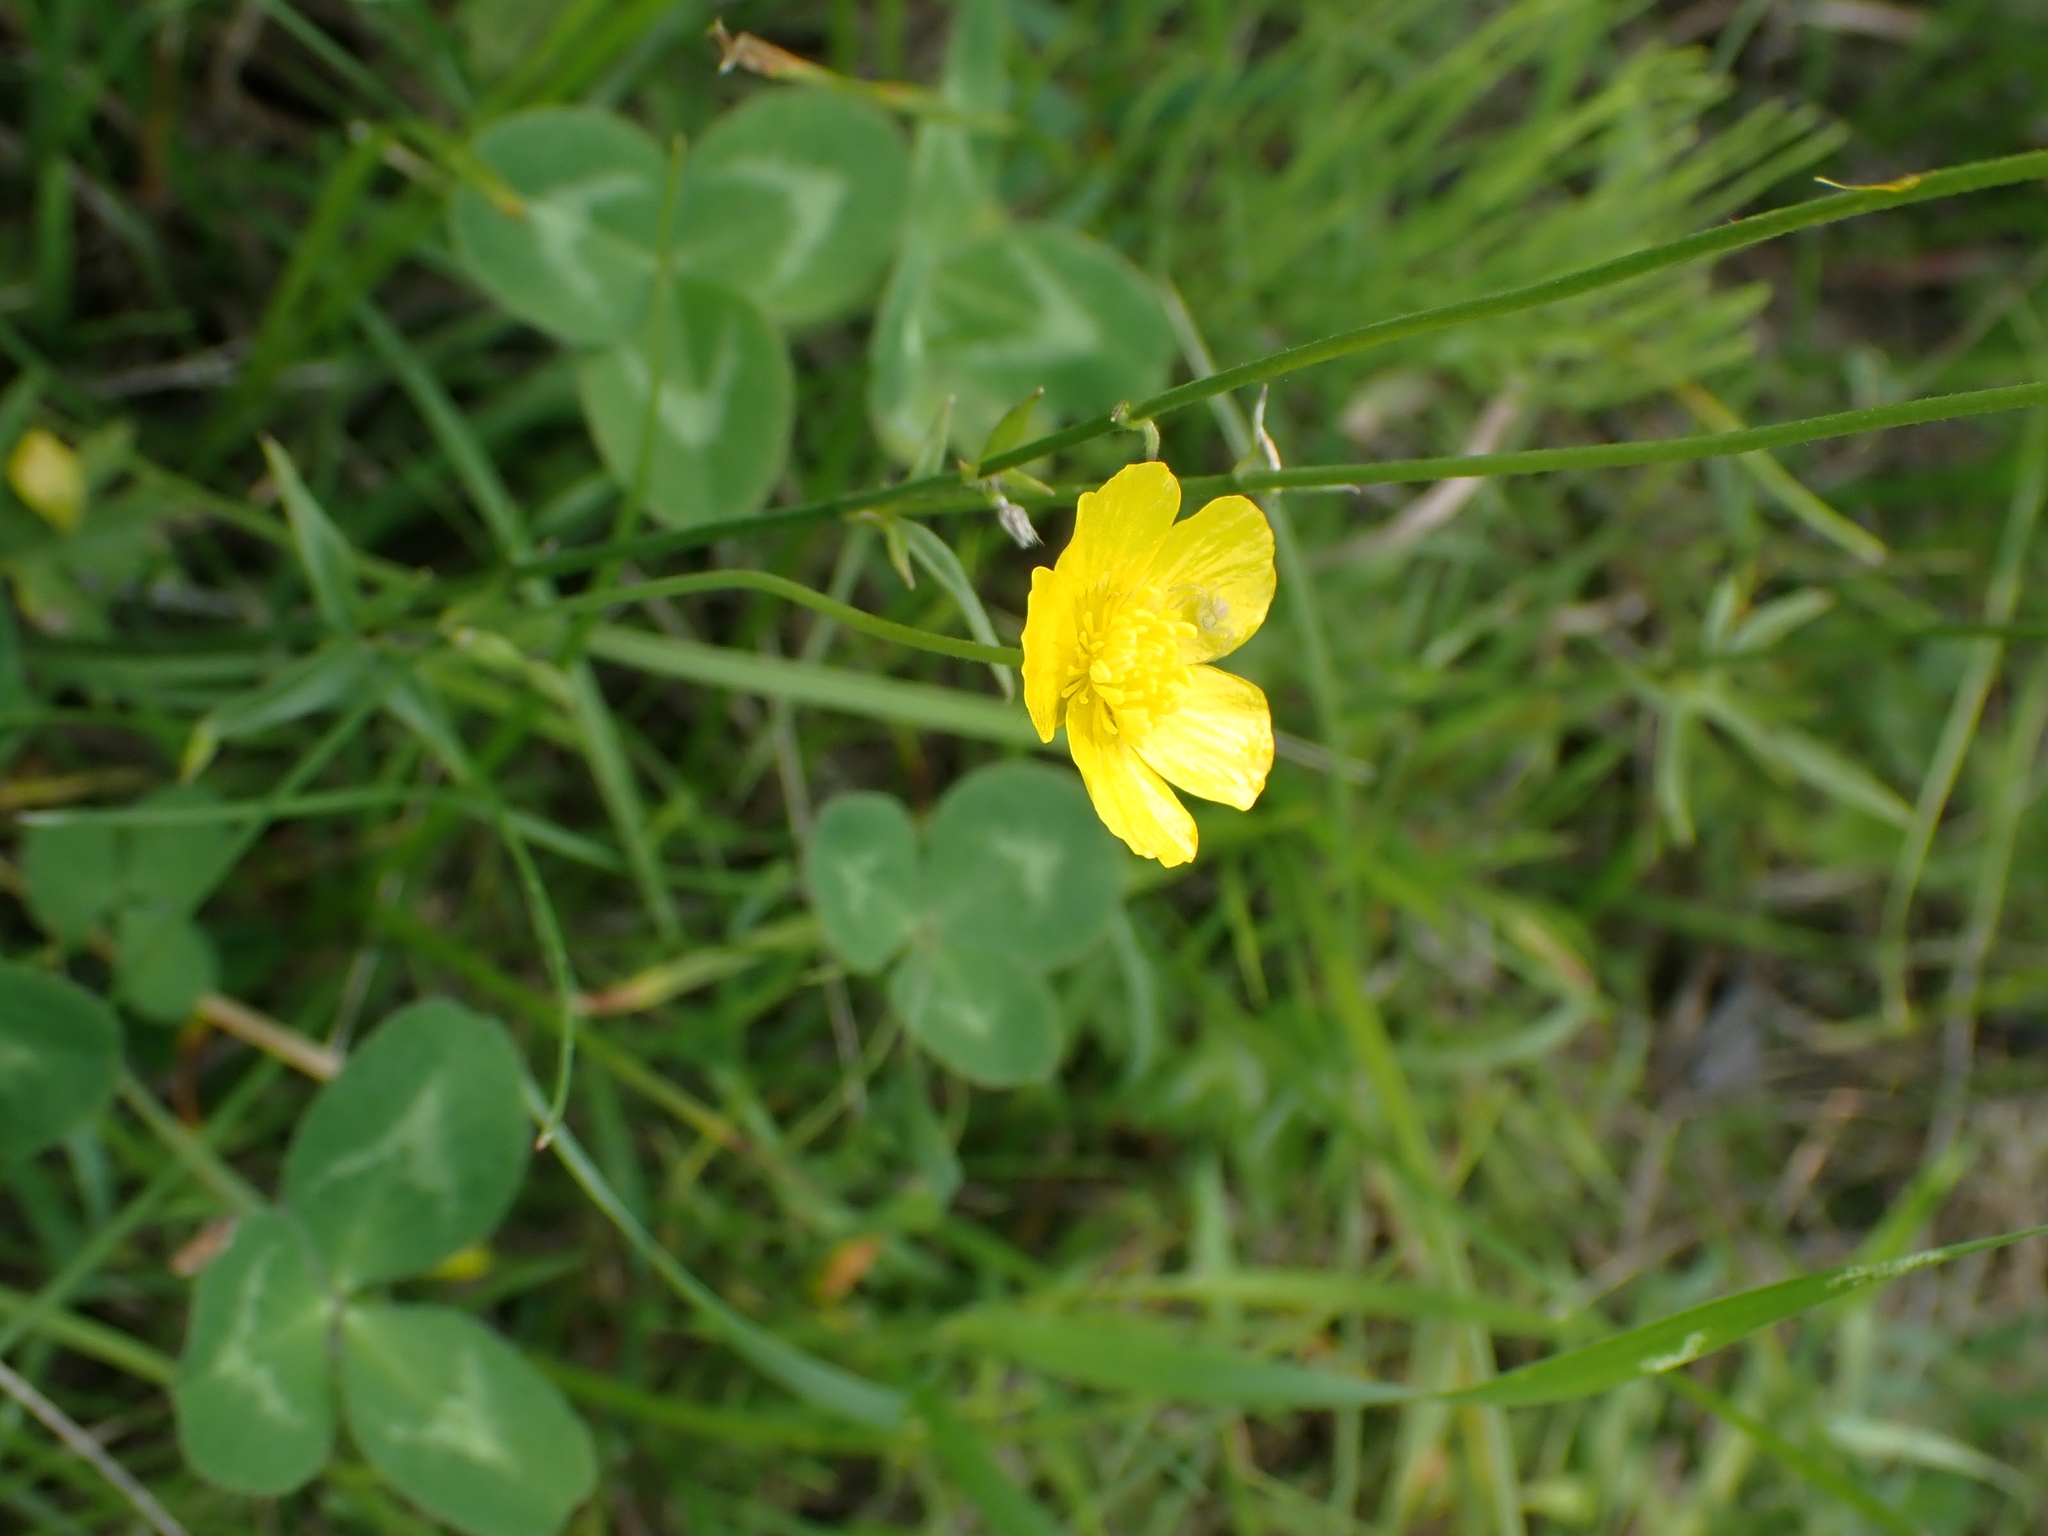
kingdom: Plantae
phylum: Tracheophyta
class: Magnoliopsida
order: Ranunculales
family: Ranunculaceae
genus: Ranunculus
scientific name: Ranunculus acris
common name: Meadow buttercup
